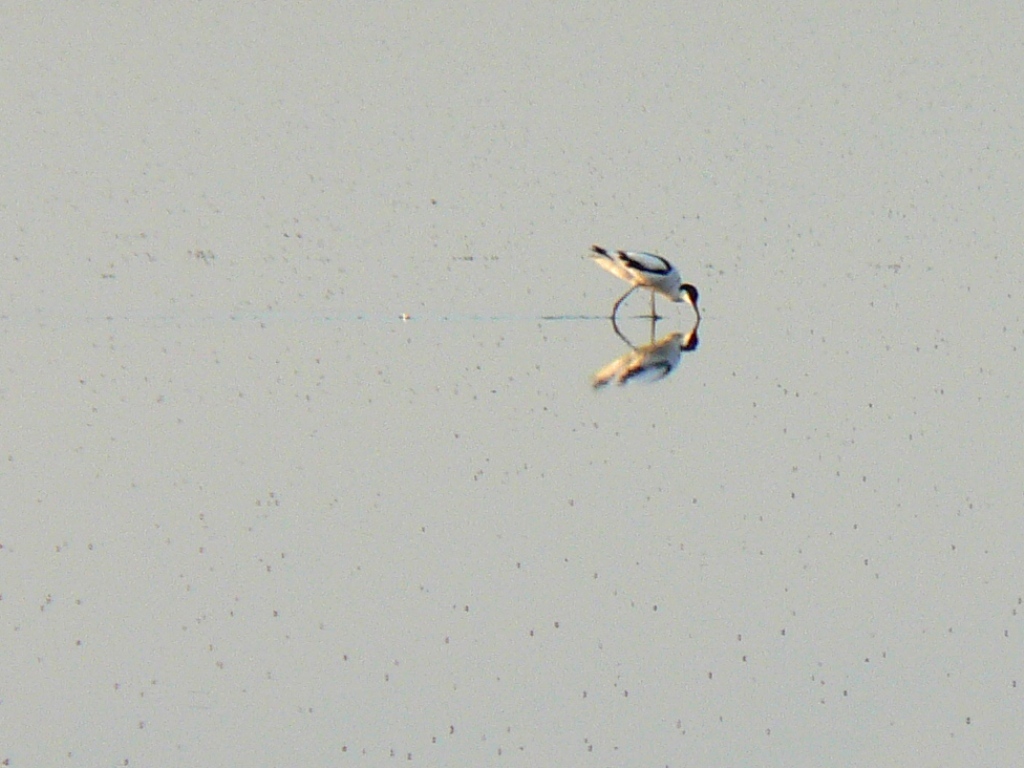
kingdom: Animalia
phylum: Chordata
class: Aves
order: Charadriiformes
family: Recurvirostridae
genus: Recurvirostra
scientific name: Recurvirostra avosetta
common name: Pied avocet
